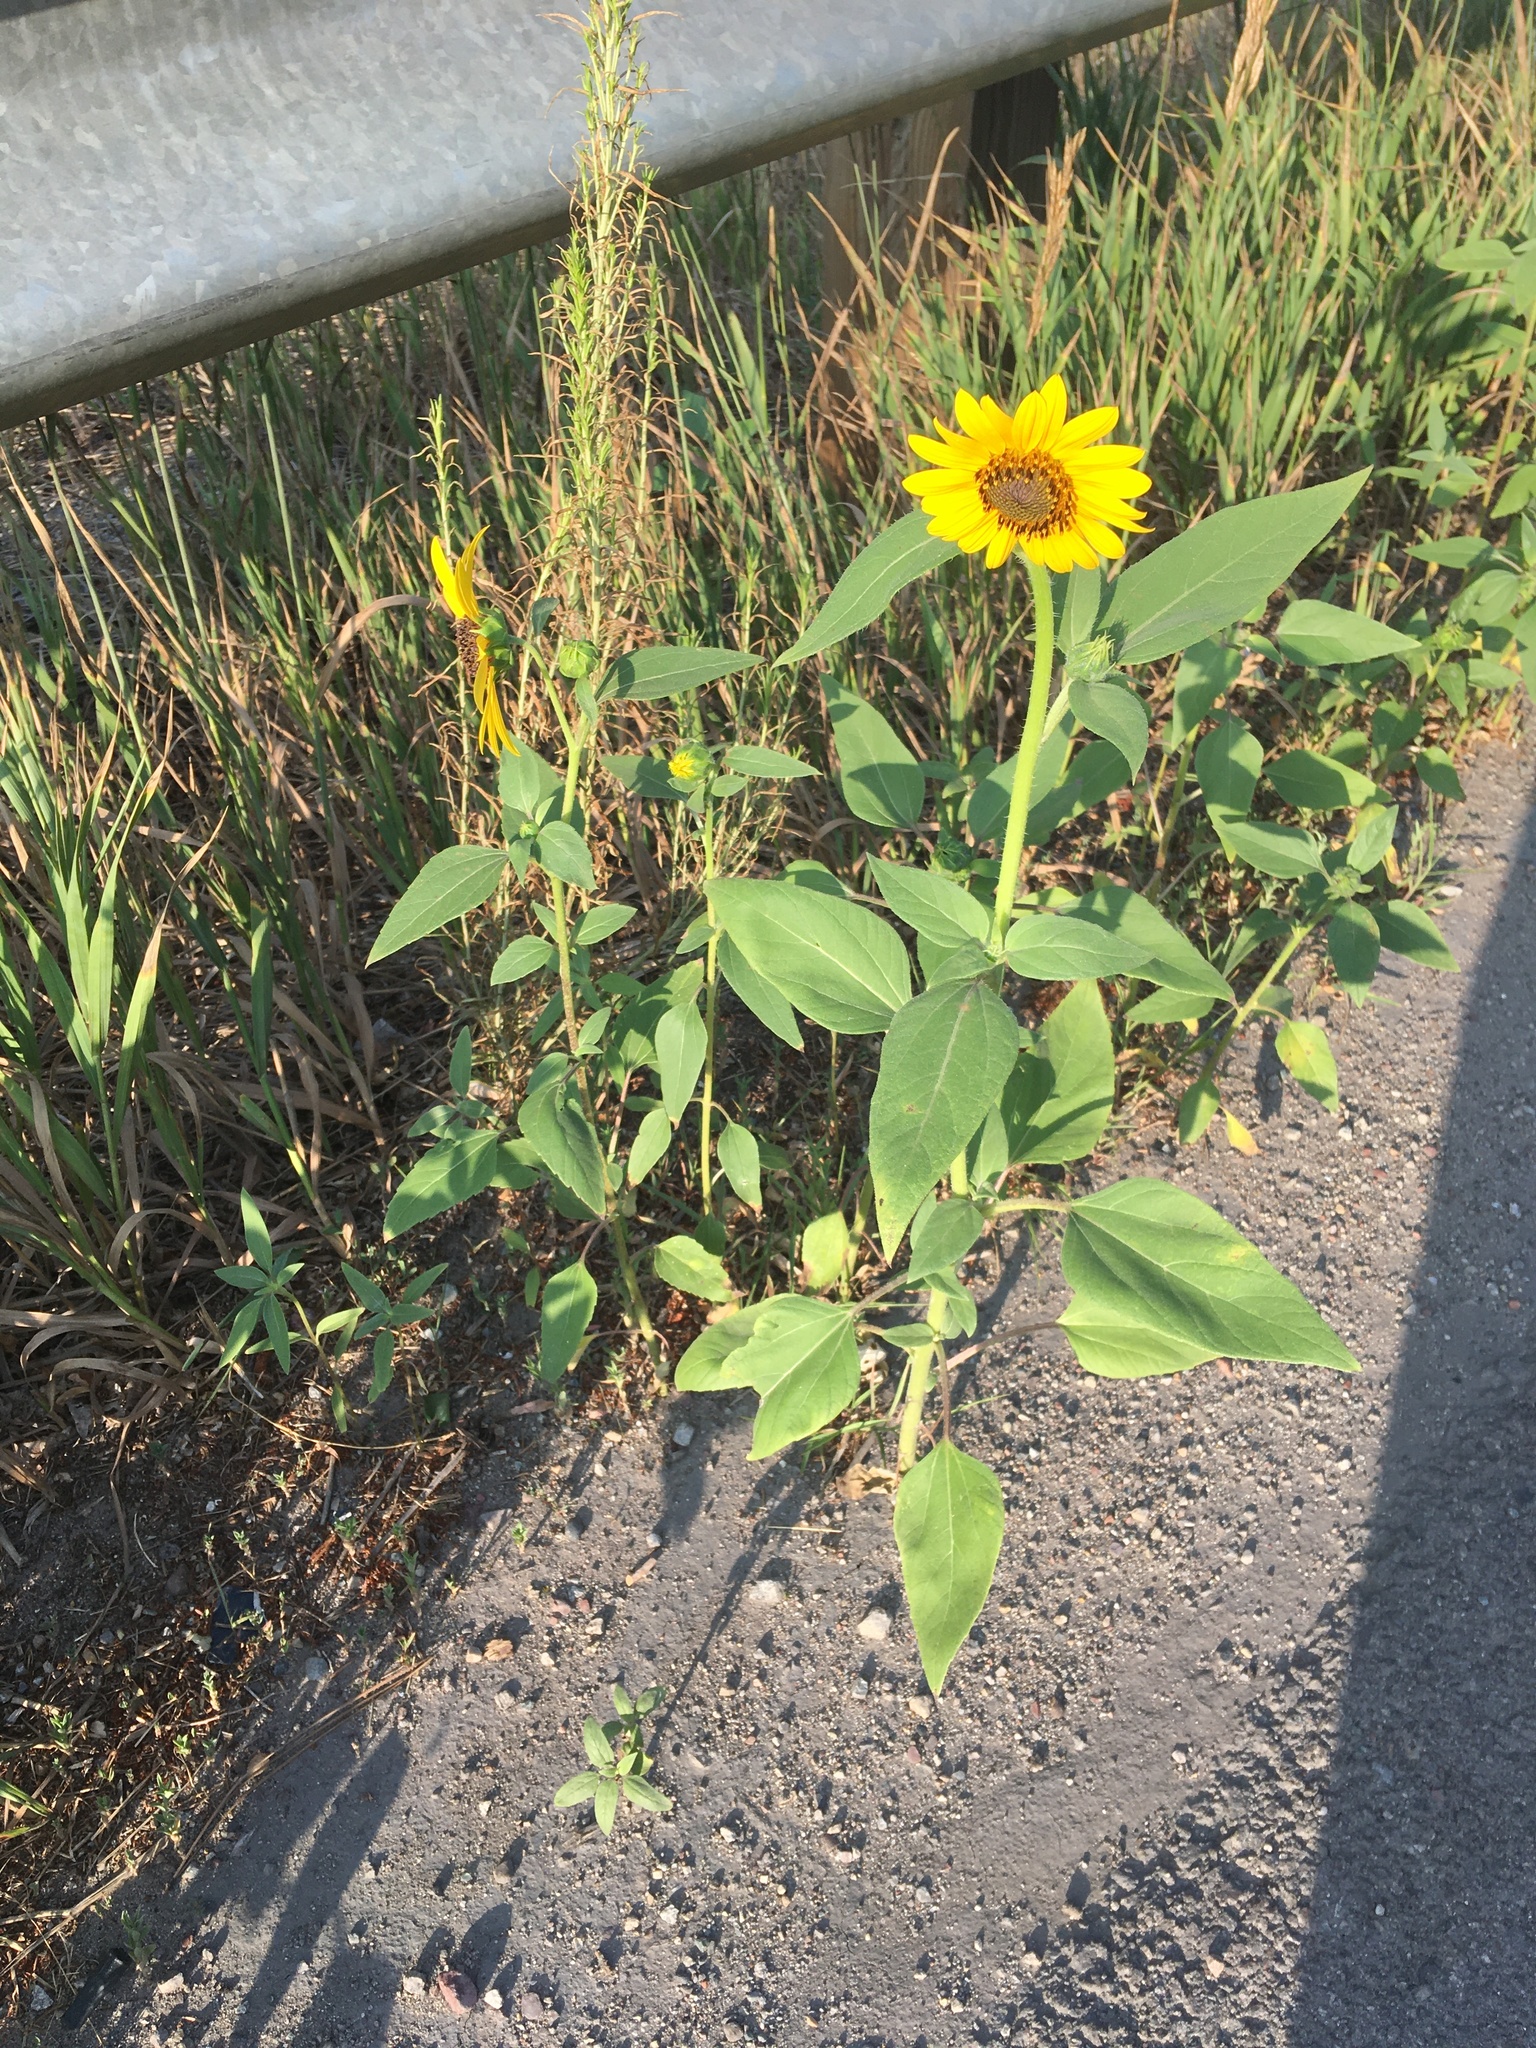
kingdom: Plantae
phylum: Tracheophyta
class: Magnoliopsida
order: Asterales
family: Asteraceae
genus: Helianthus
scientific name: Helianthus annuus
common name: Sunflower
